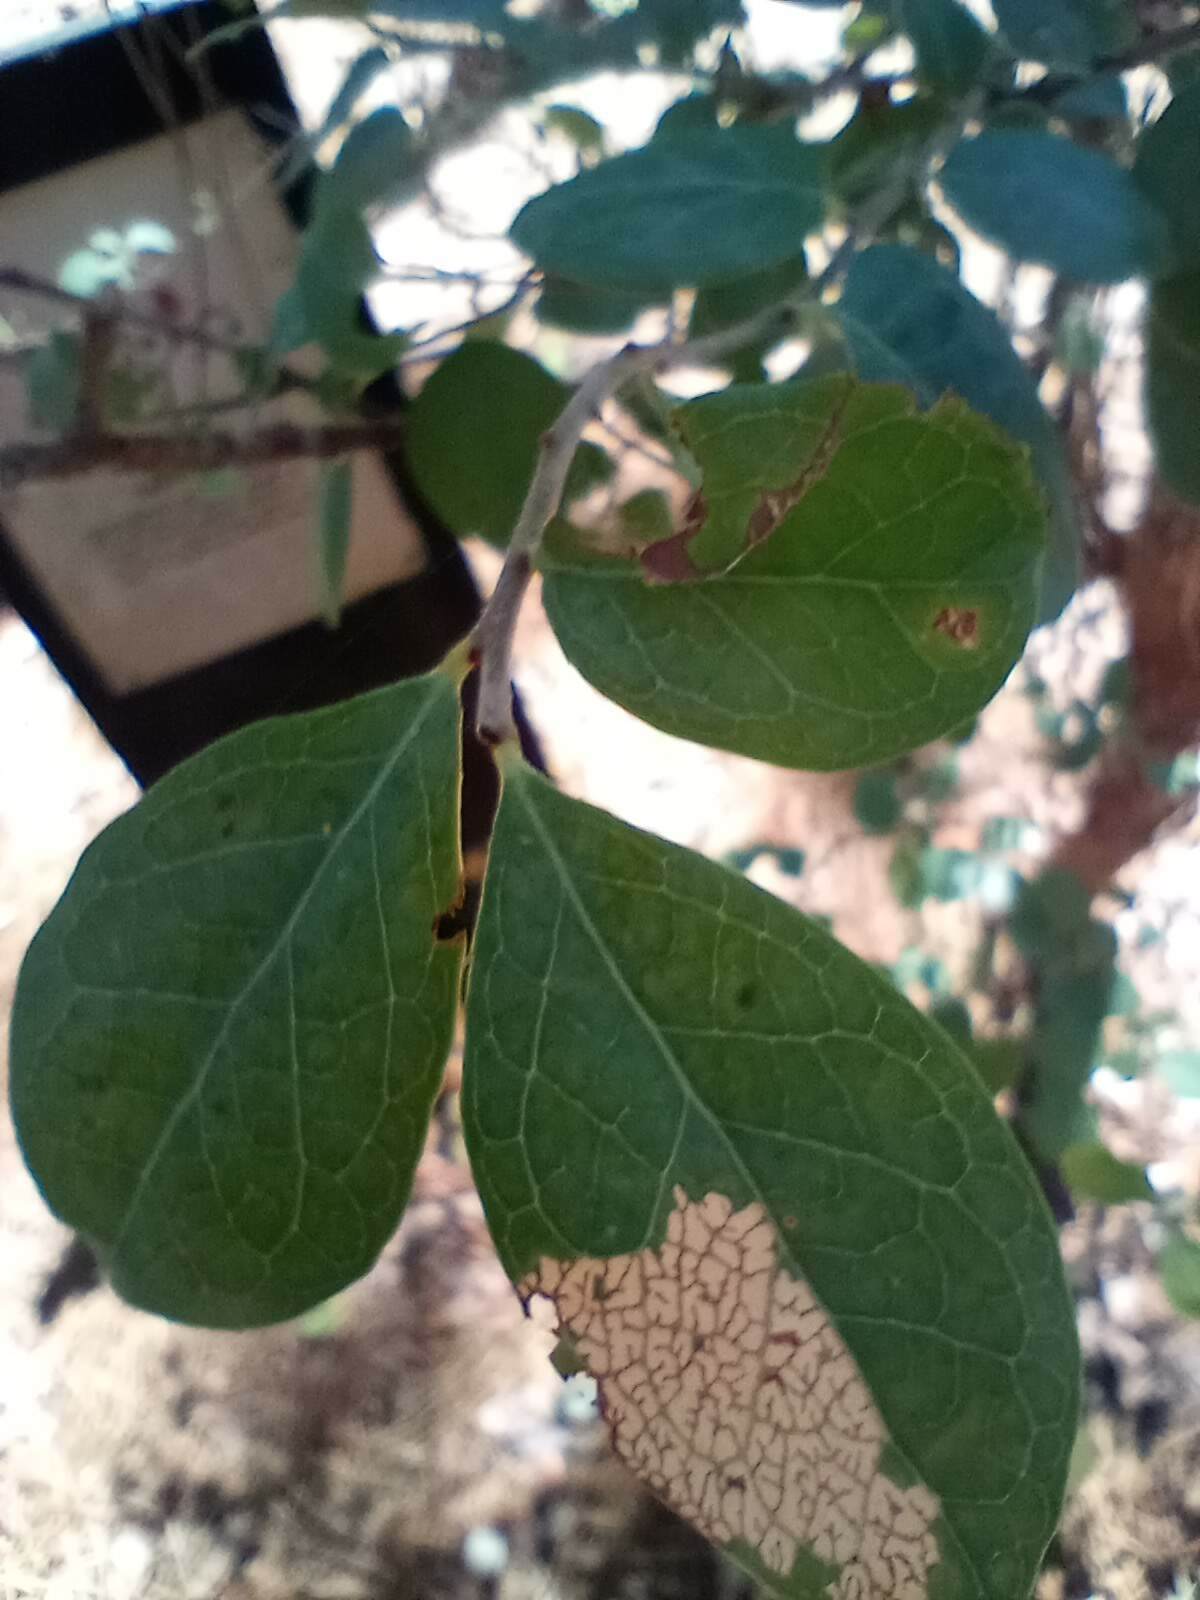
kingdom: Plantae
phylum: Tracheophyta
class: Magnoliopsida
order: Ericales
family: Ericaceae
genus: Vaccinium
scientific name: Vaccinium arboreum
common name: Farkleberry
